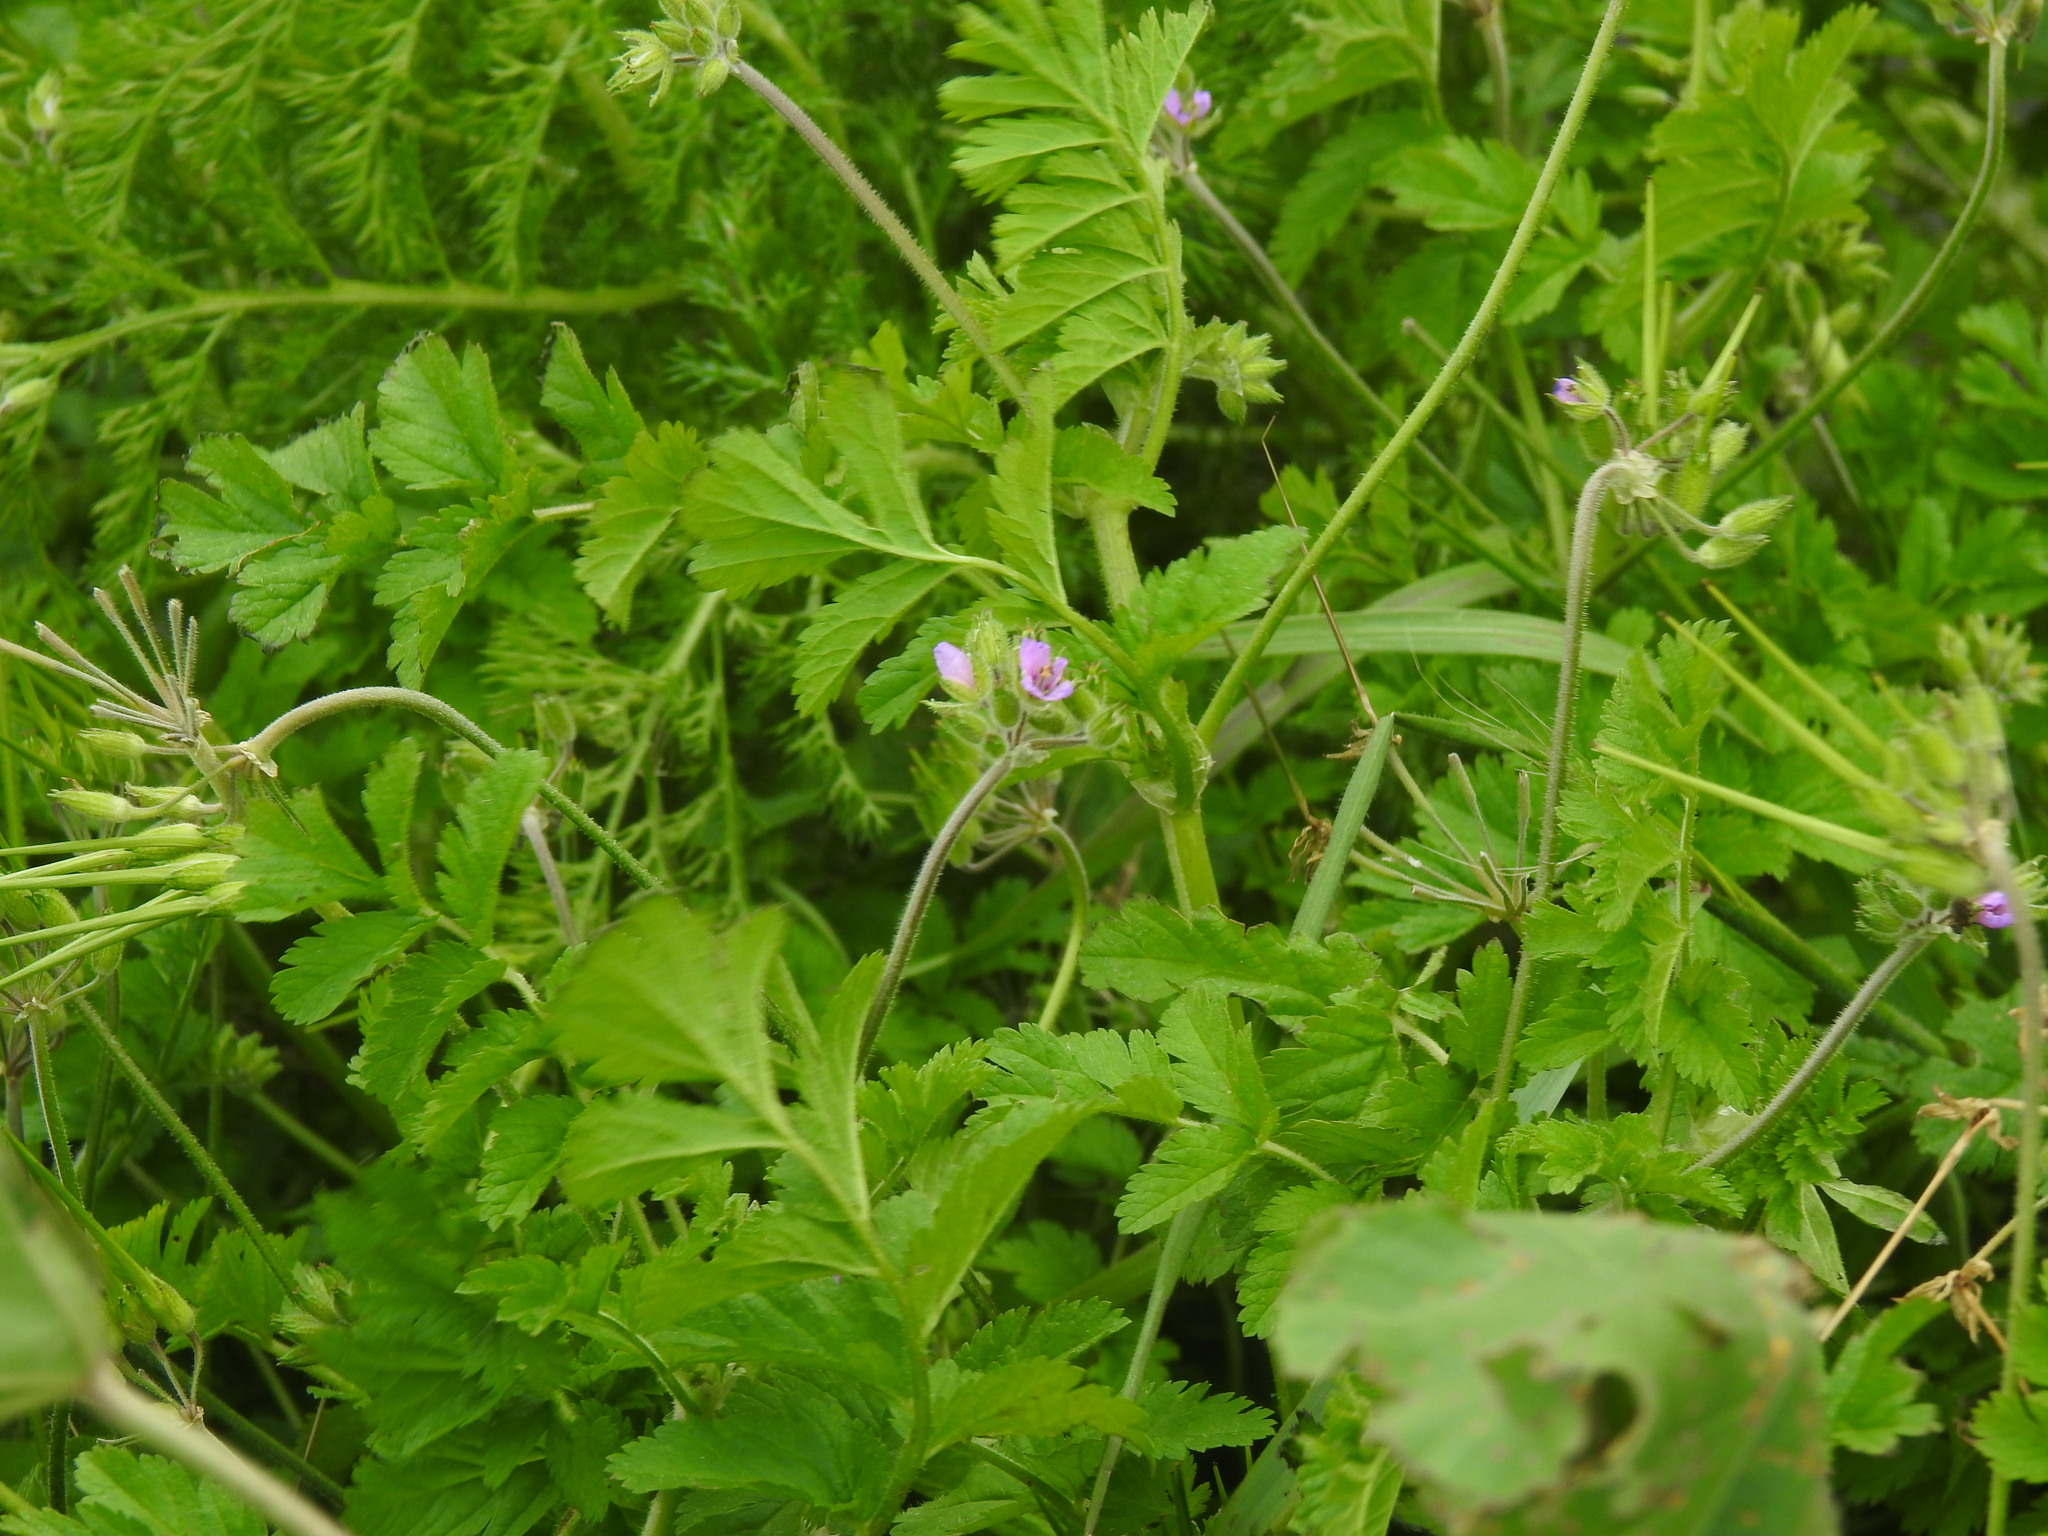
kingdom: Plantae
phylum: Tracheophyta
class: Magnoliopsida
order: Geraniales
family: Geraniaceae
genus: Erodium
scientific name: Erodium moschatum
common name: Musk stork's-bill
